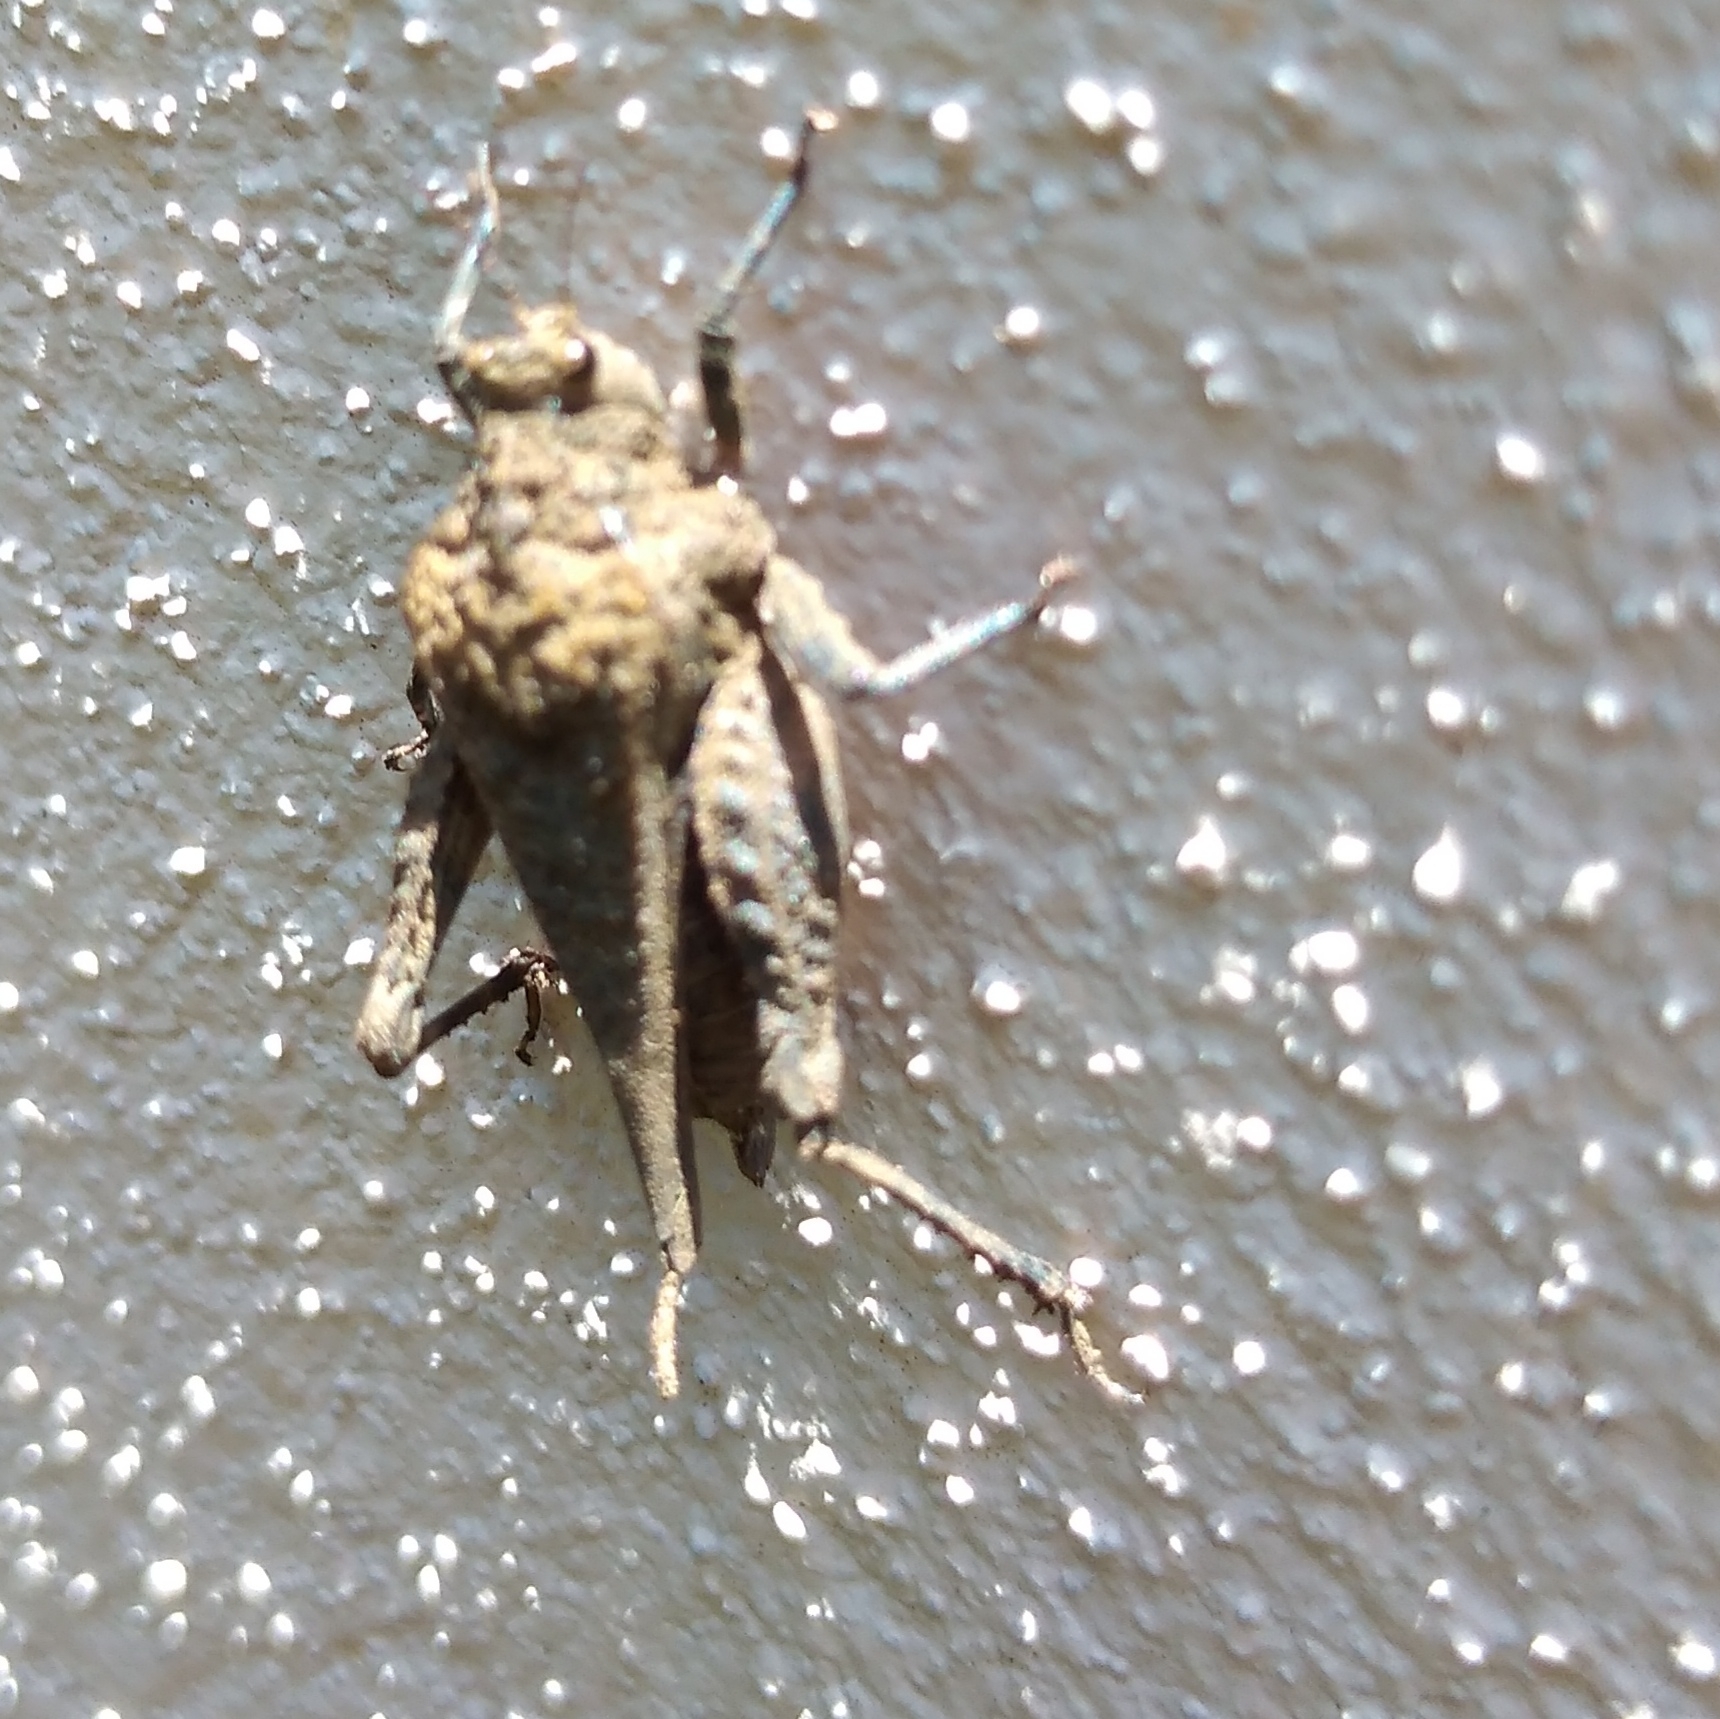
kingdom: Animalia
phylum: Arthropoda
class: Insecta
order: Orthoptera
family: Tetrigidae
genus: Dasyleurotettix
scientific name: Dasyleurotettix infaustus
